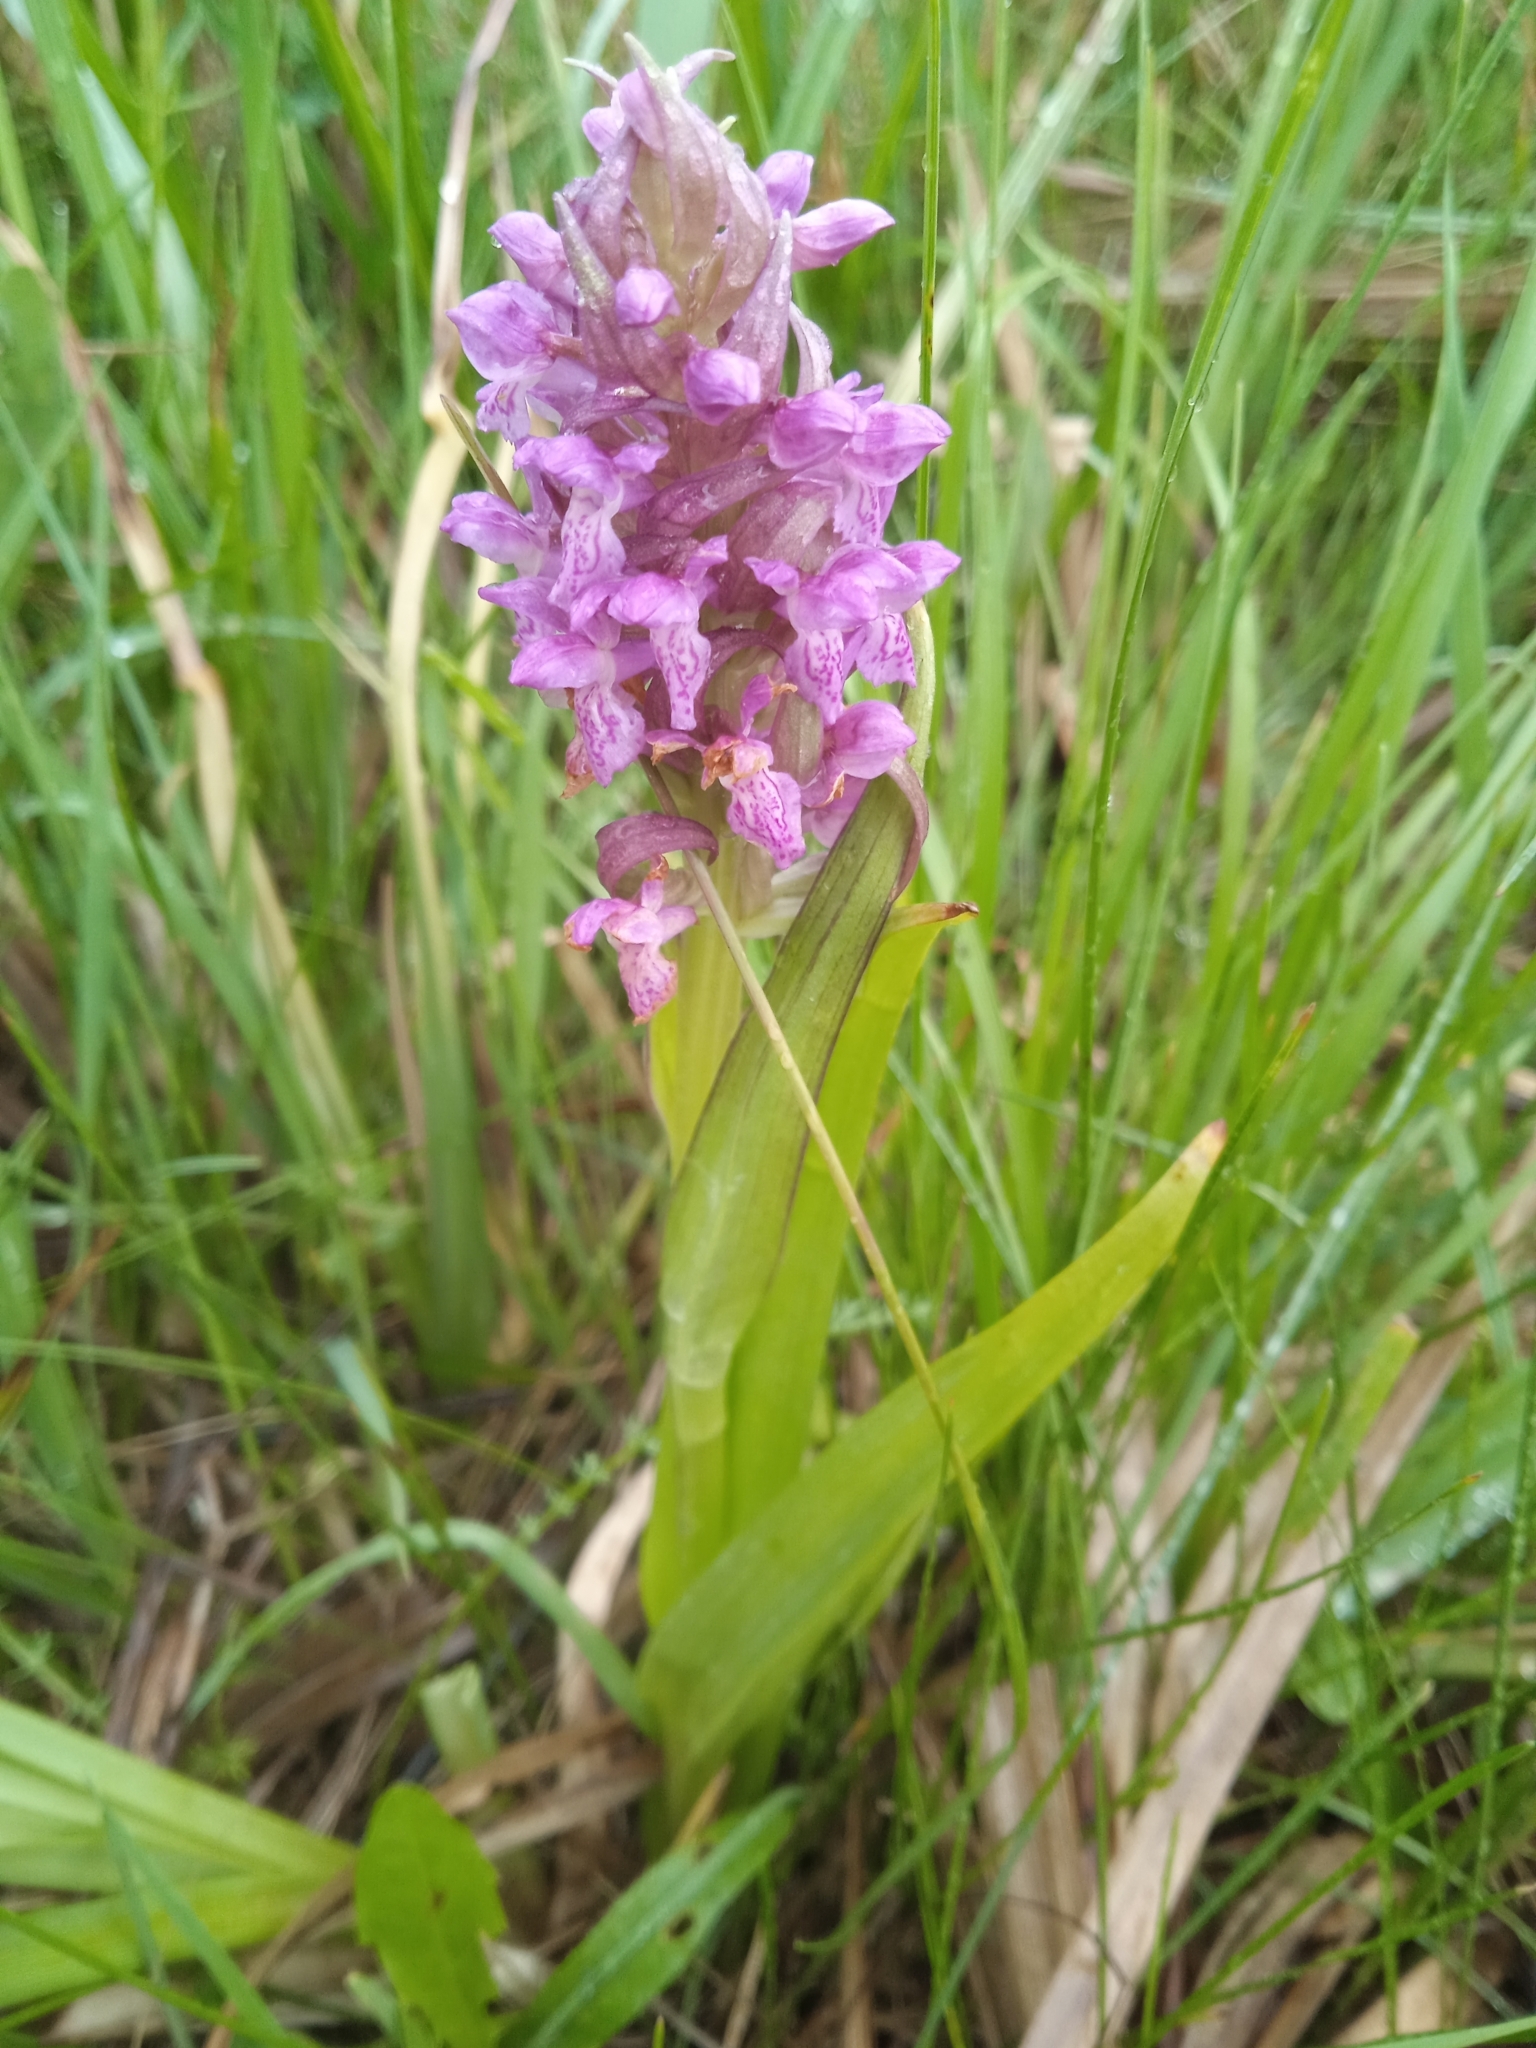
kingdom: Plantae
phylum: Tracheophyta
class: Liliopsida
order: Asparagales
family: Orchidaceae
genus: Dactylorhiza
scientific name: Dactylorhiza incarnata
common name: Early marsh-orchid
